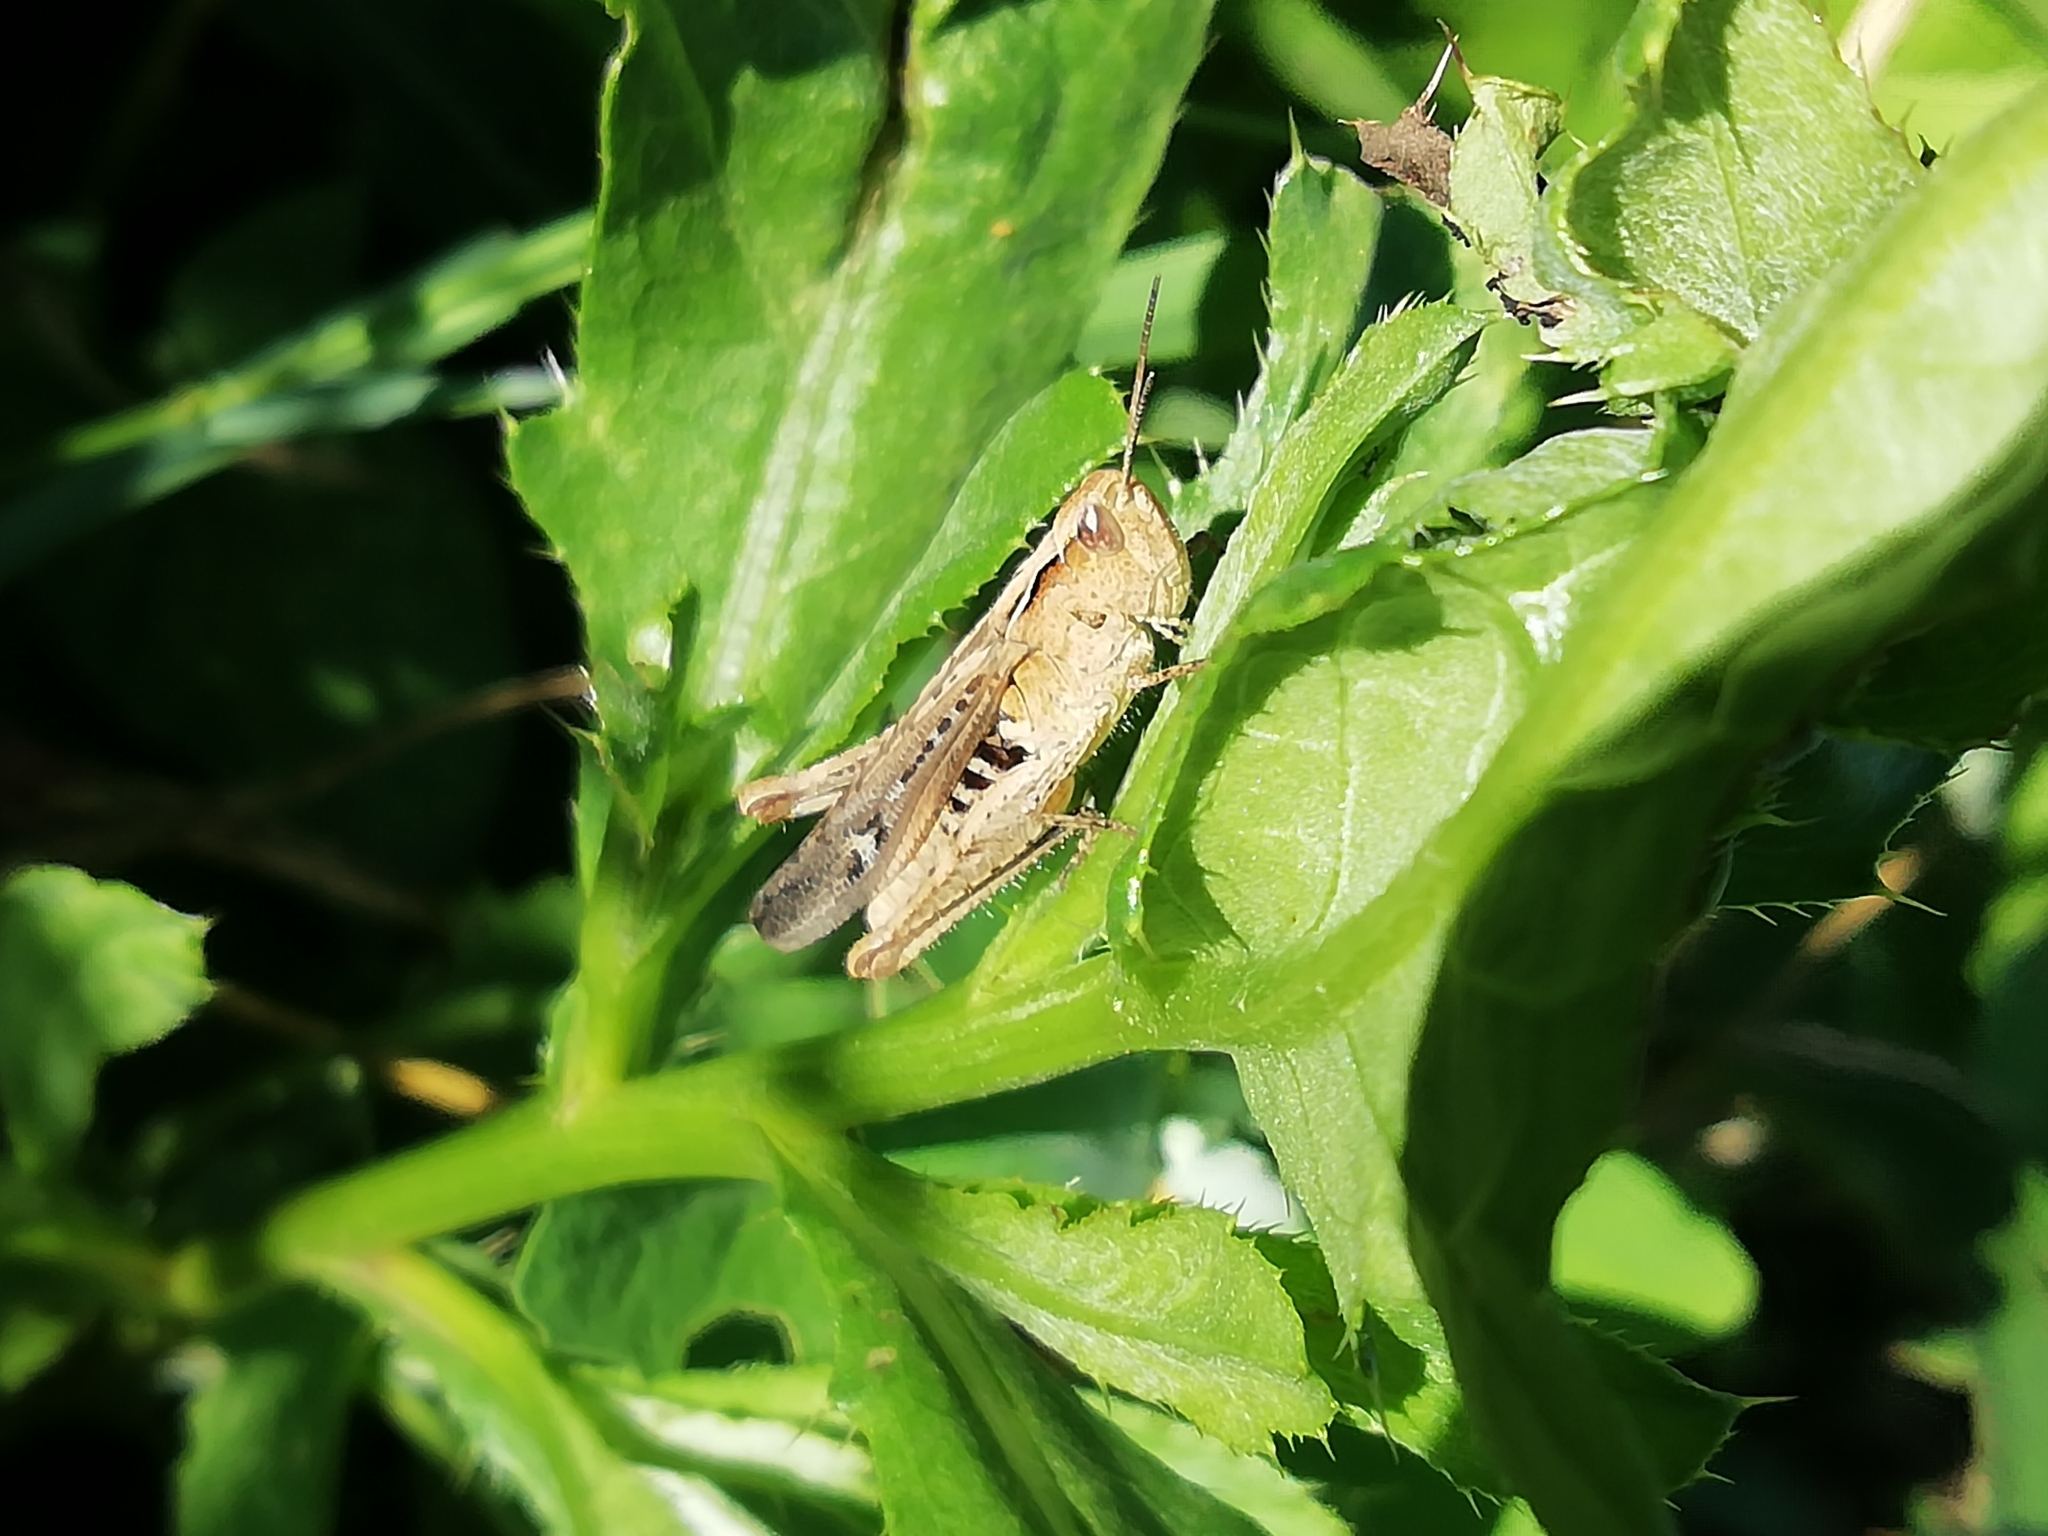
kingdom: Animalia
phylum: Arthropoda
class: Insecta
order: Orthoptera
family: Acrididae
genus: Chorthippus
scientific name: Chorthippus biguttulus
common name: Bow-winged grasshopper
